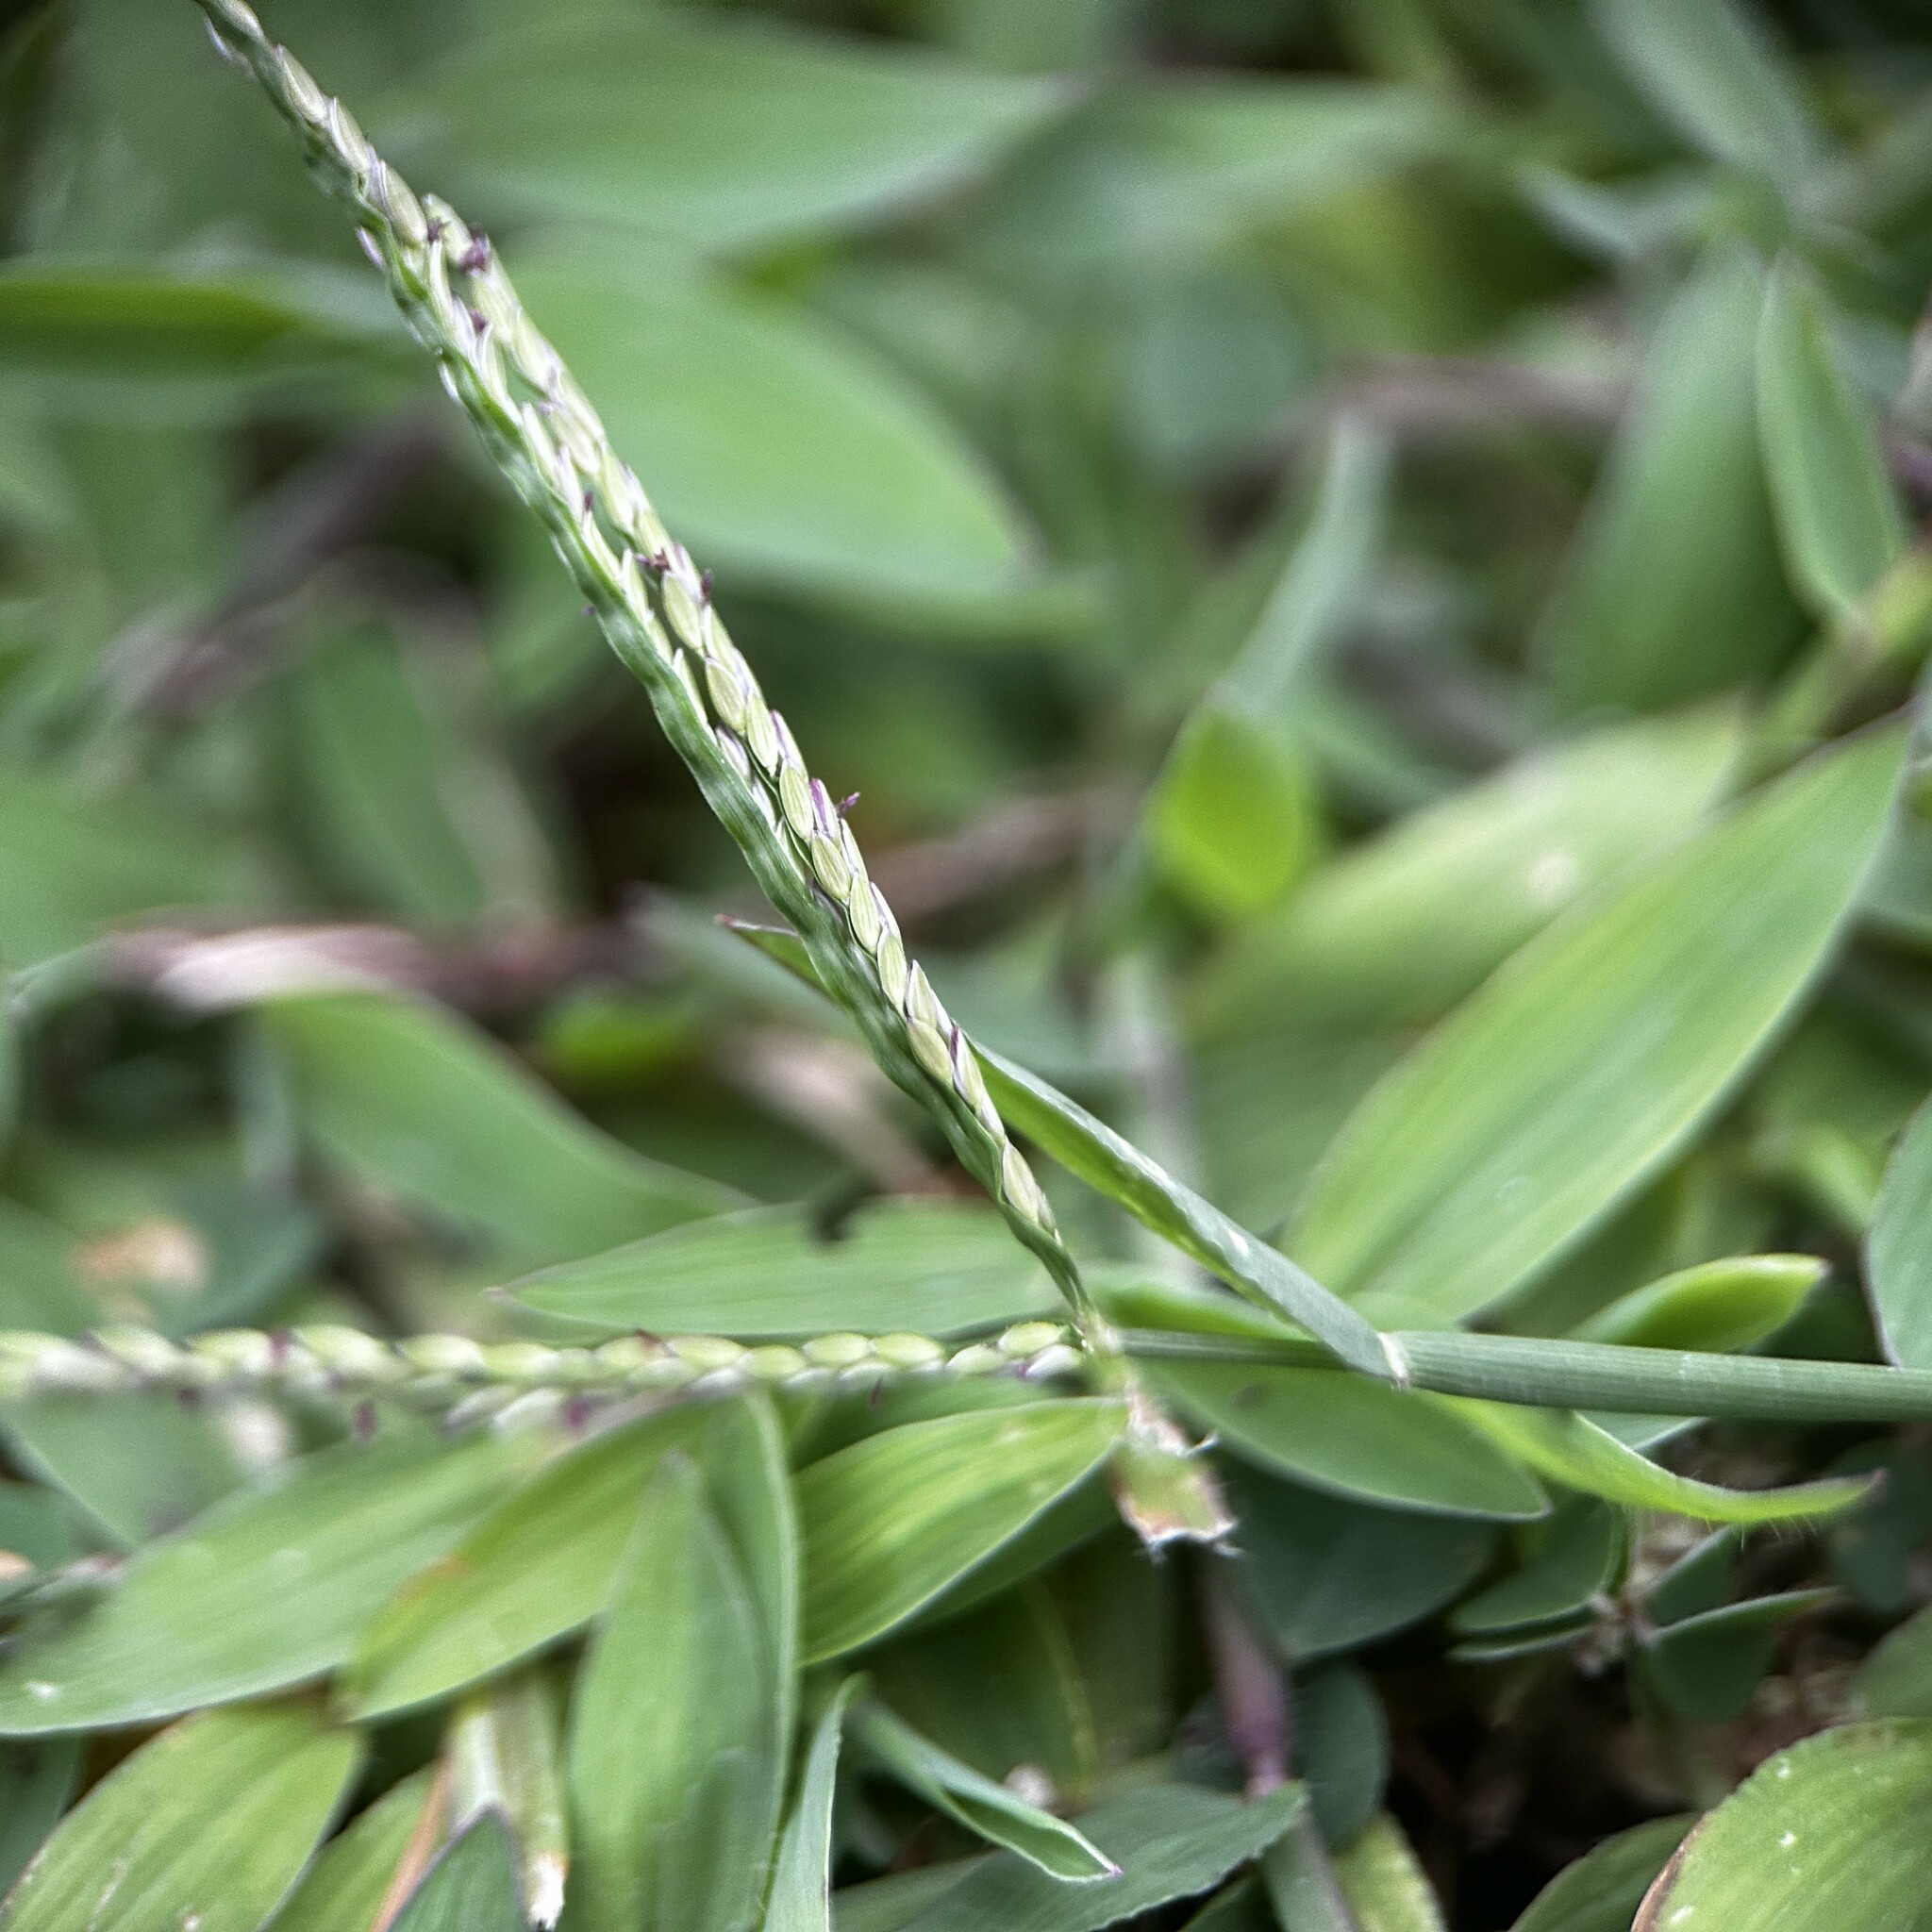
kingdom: Plantae
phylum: Tracheophyta
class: Liliopsida
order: Poales
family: Poaceae
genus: Digitaria
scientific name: Digitaria mollicoma
